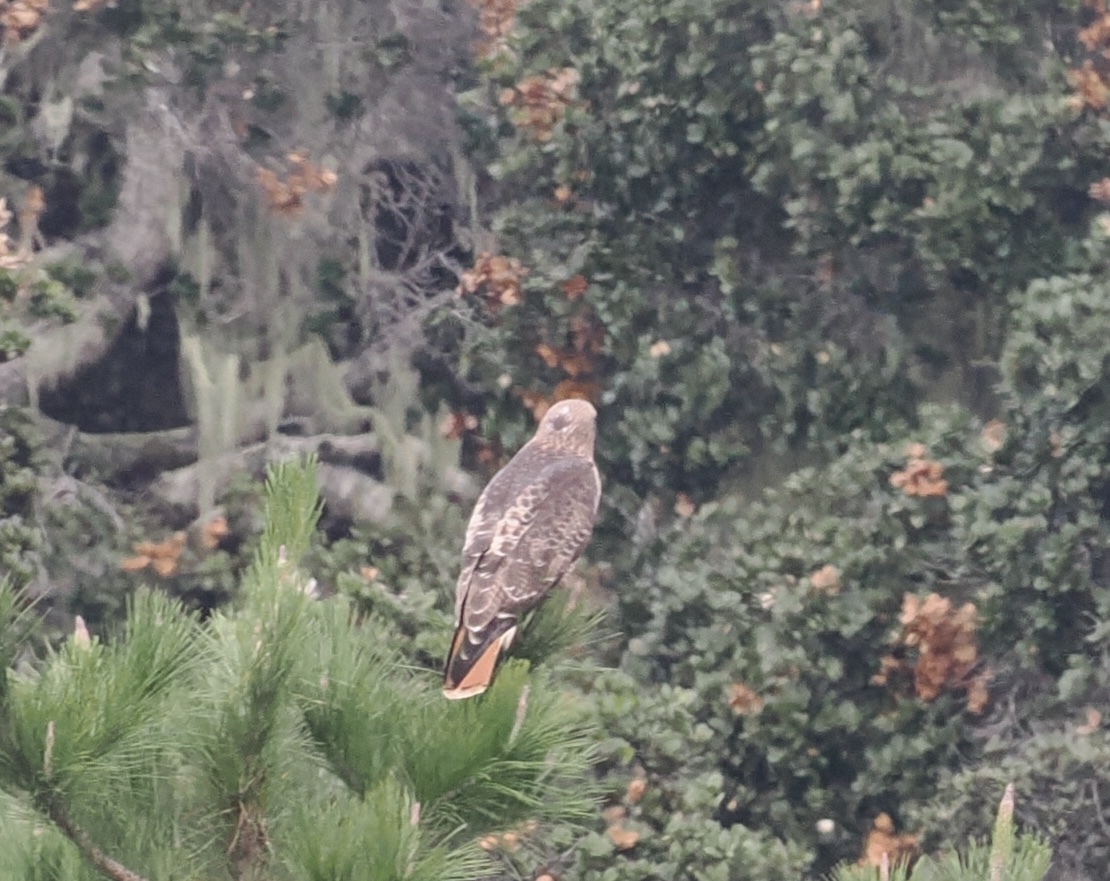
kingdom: Animalia
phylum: Chordata
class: Aves
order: Accipitriformes
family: Accipitridae
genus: Buteo
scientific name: Buteo jamaicensis
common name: Red-tailed hawk
